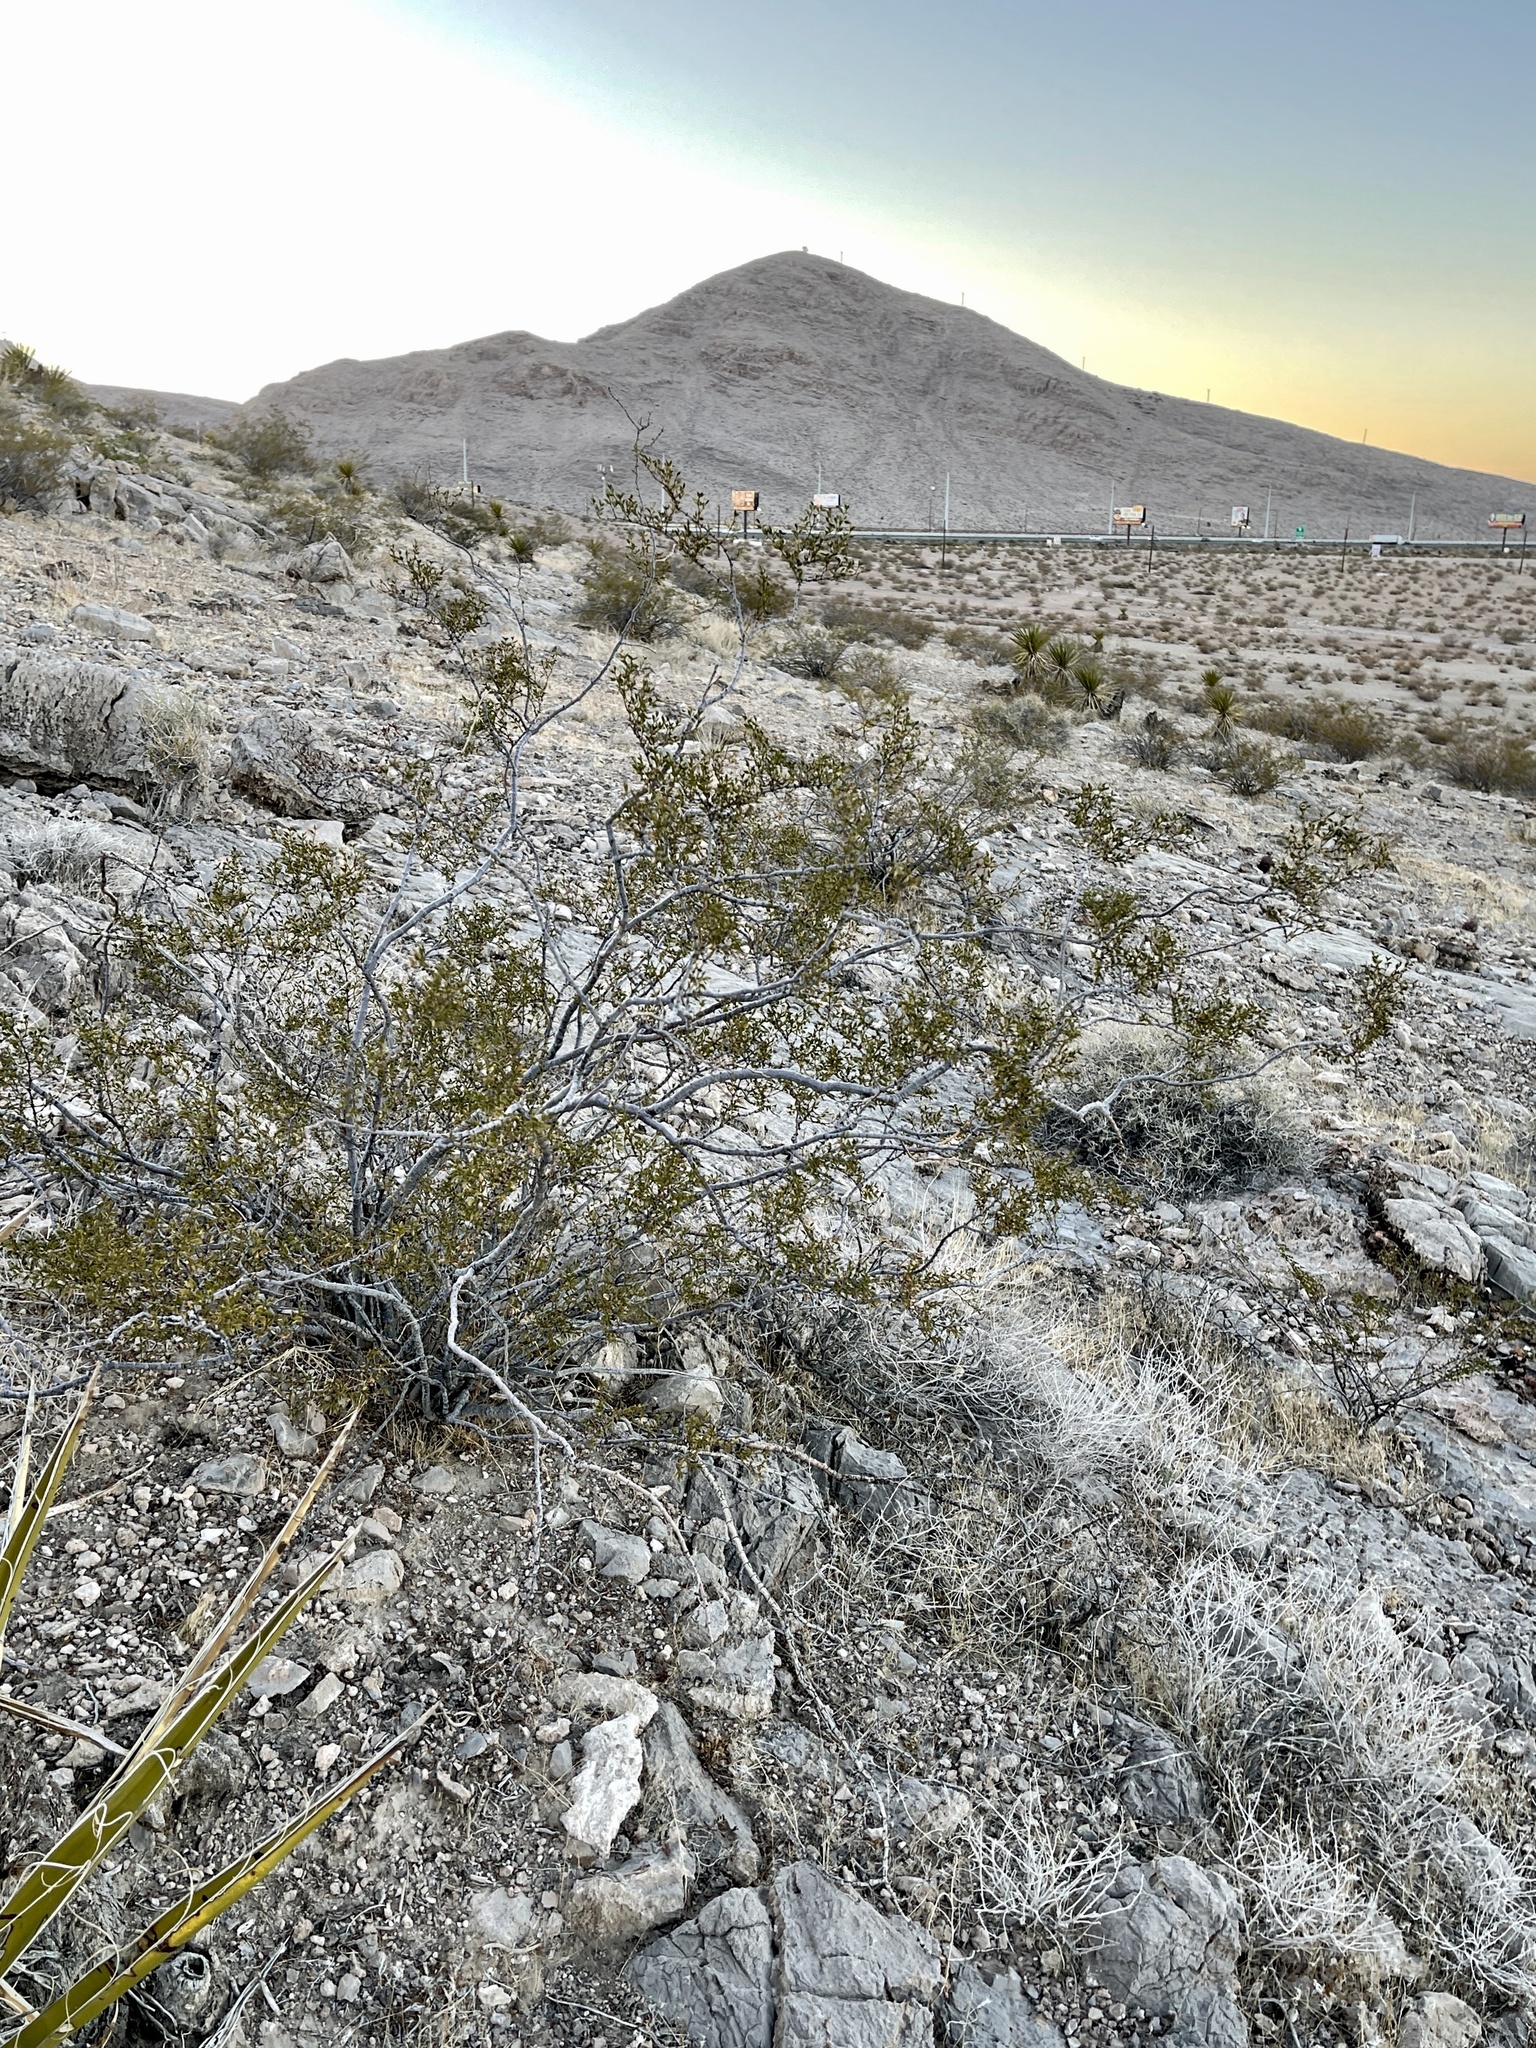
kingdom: Plantae
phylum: Tracheophyta
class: Magnoliopsida
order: Zygophyllales
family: Zygophyllaceae
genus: Larrea
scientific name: Larrea tridentata
